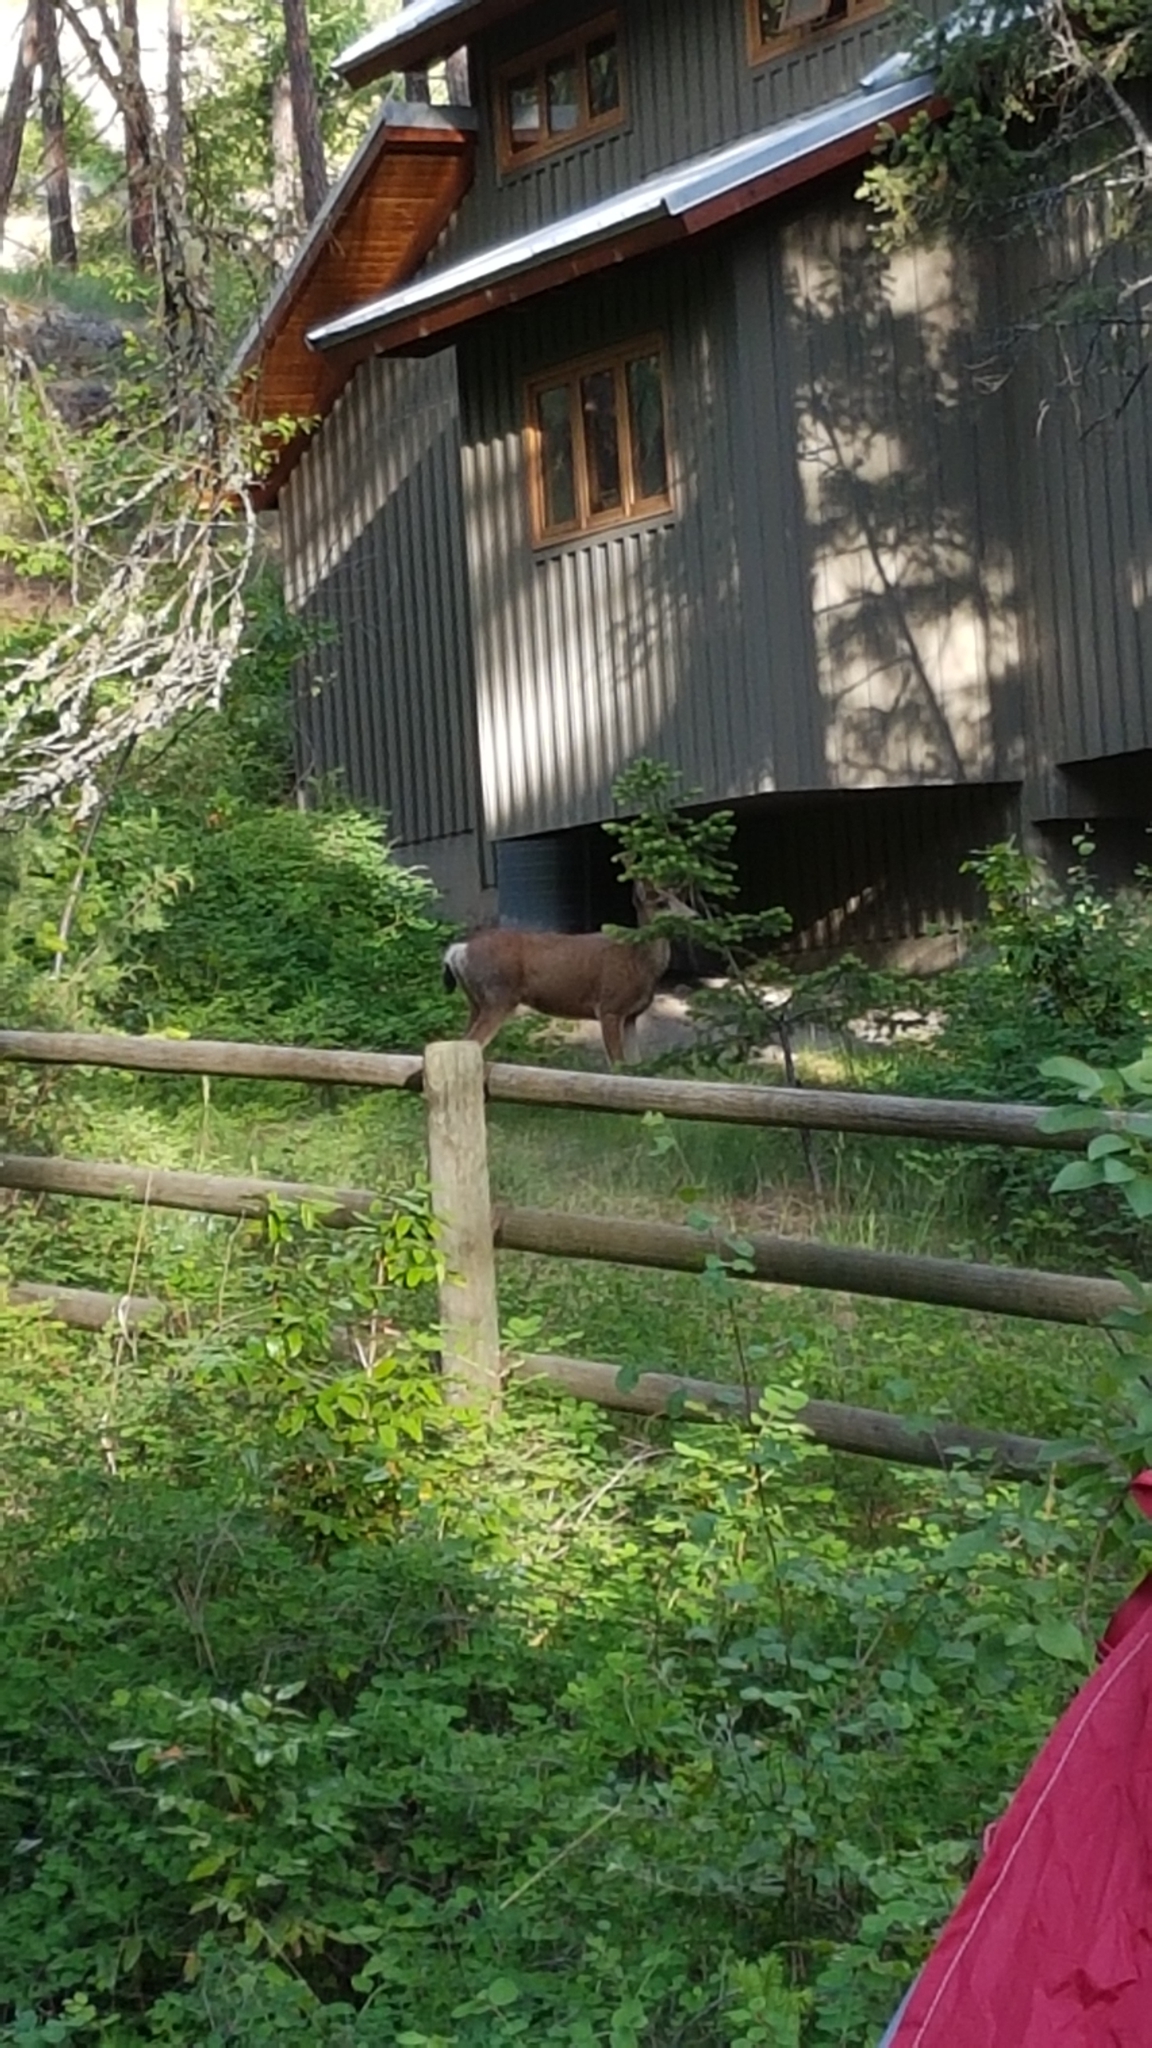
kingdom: Animalia
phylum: Chordata
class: Mammalia
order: Artiodactyla
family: Cervidae
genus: Odocoileus
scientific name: Odocoileus hemionus
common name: Mule deer
